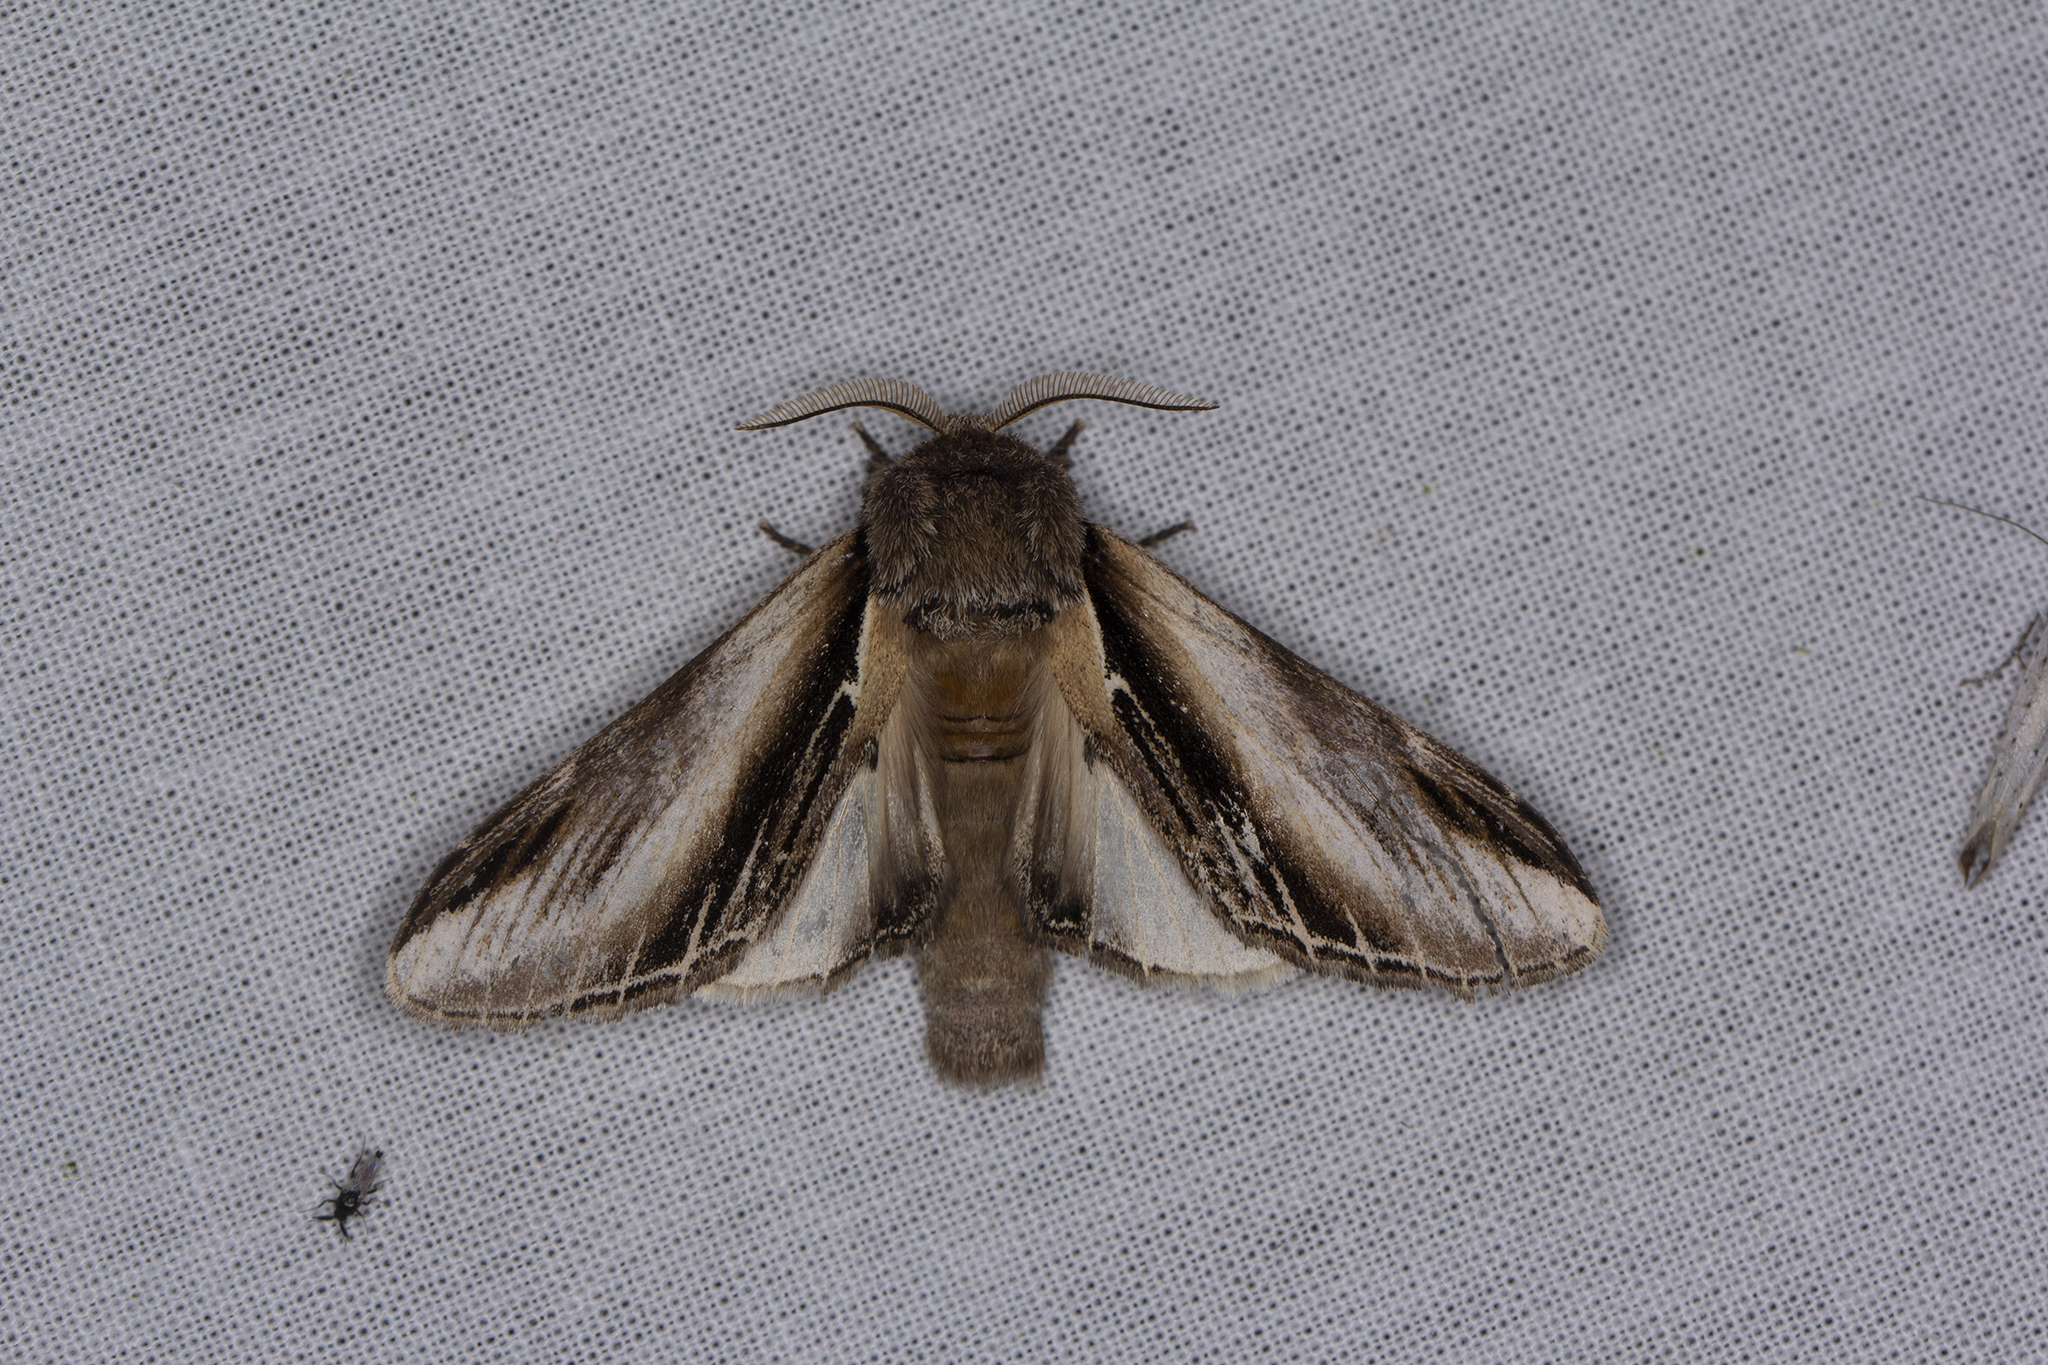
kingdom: Animalia
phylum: Arthropoda
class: Insecta
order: Lepidoptera
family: Notodontidae
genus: Pheosia
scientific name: Pheosia tremula
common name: Swallow prominent
